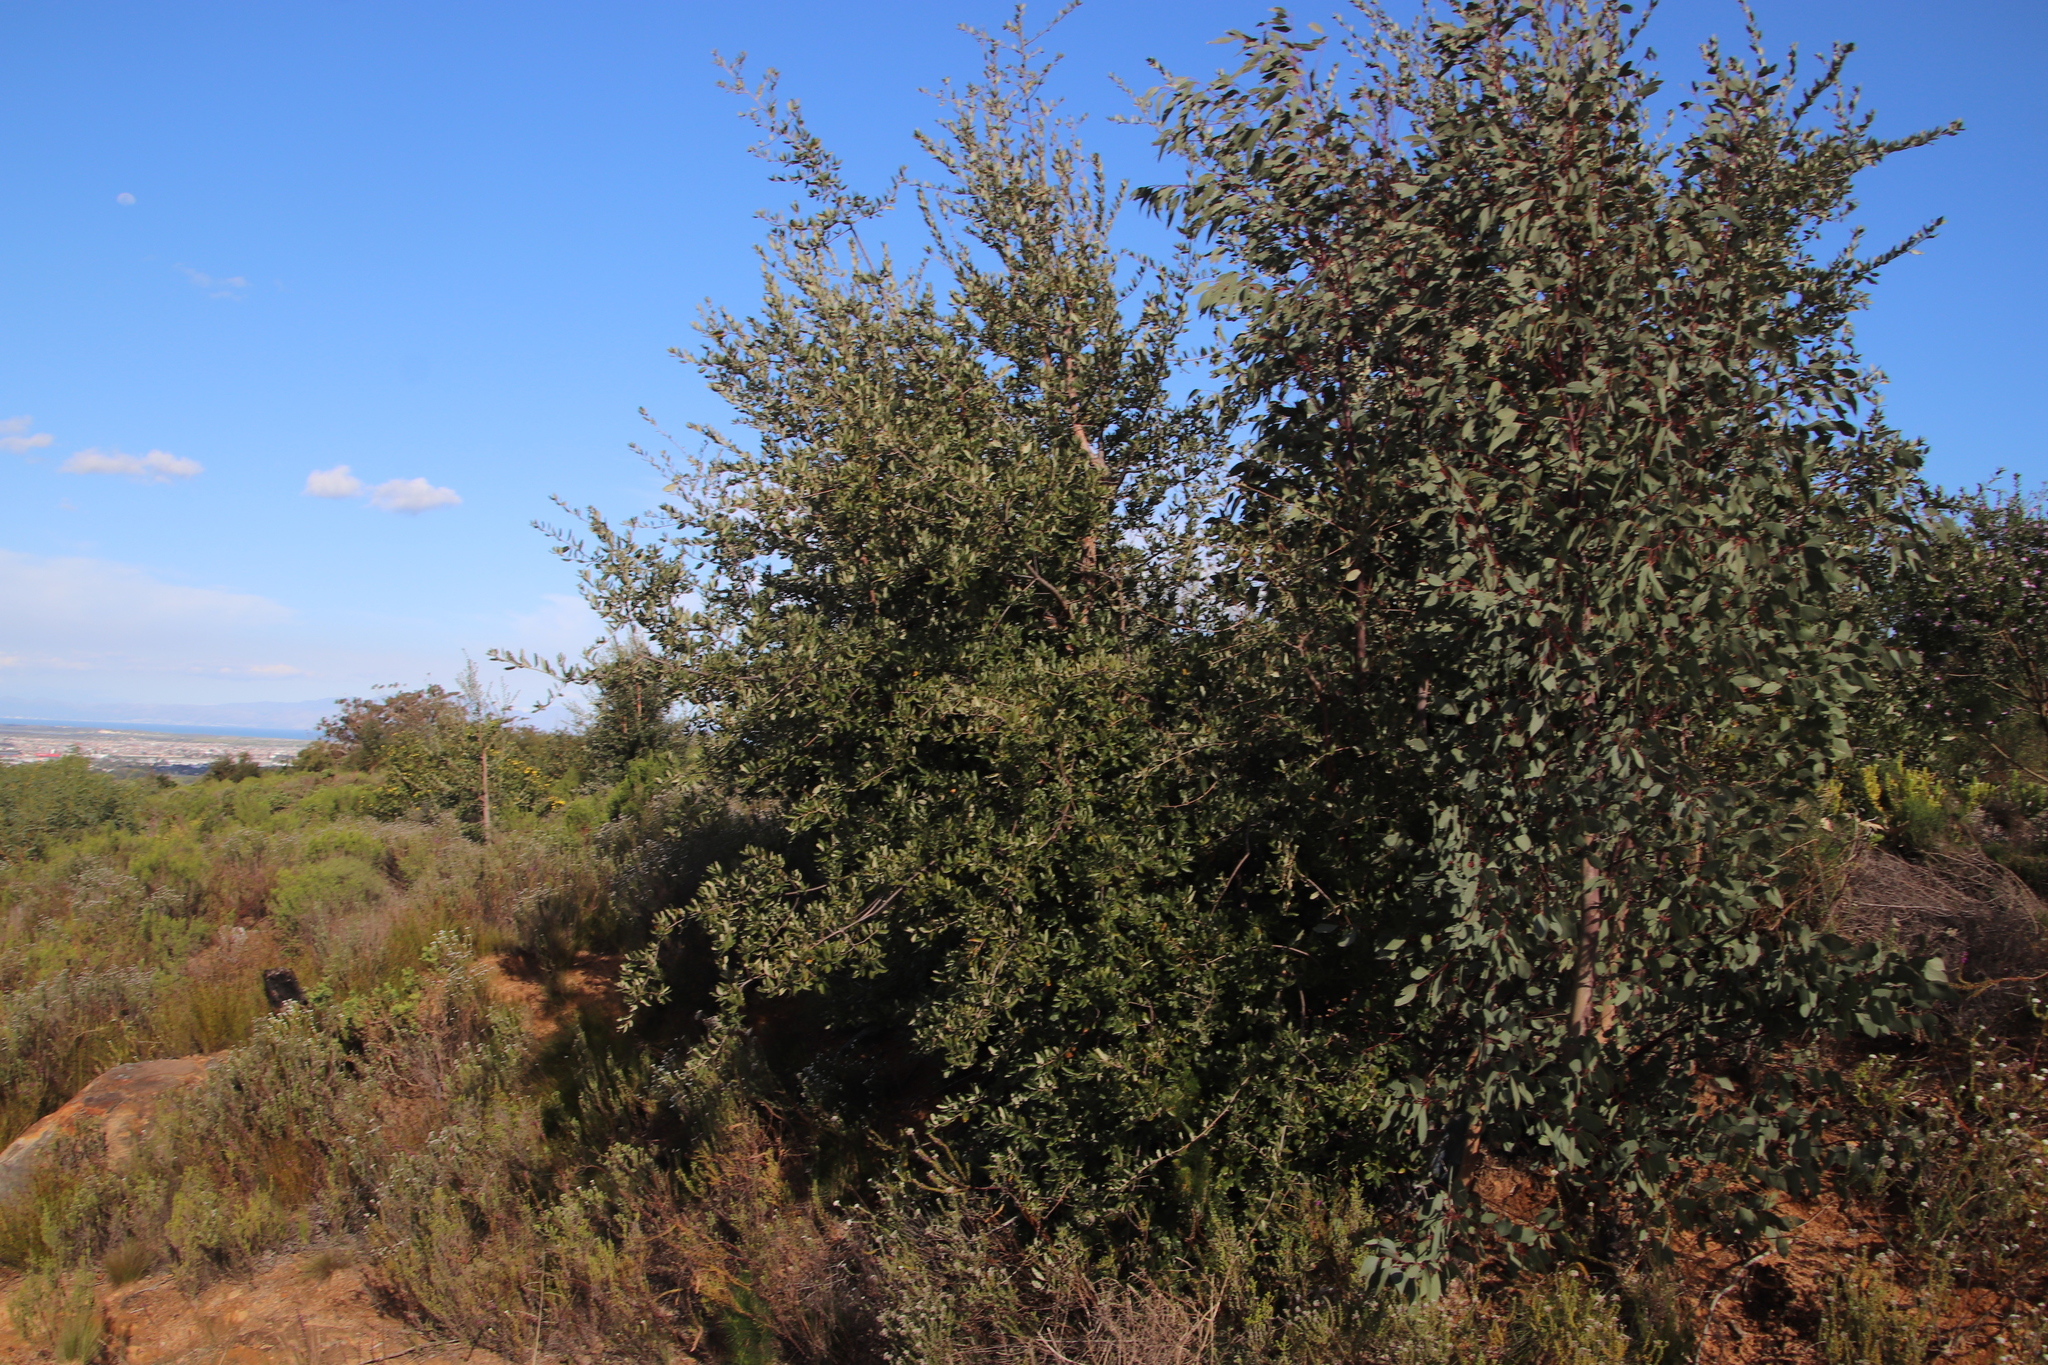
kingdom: Plantae
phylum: Tracheophyta
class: Magnoliopsida
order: Fagales
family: Fagaceae
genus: Quercus
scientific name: Quercus suber
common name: Cork oak
